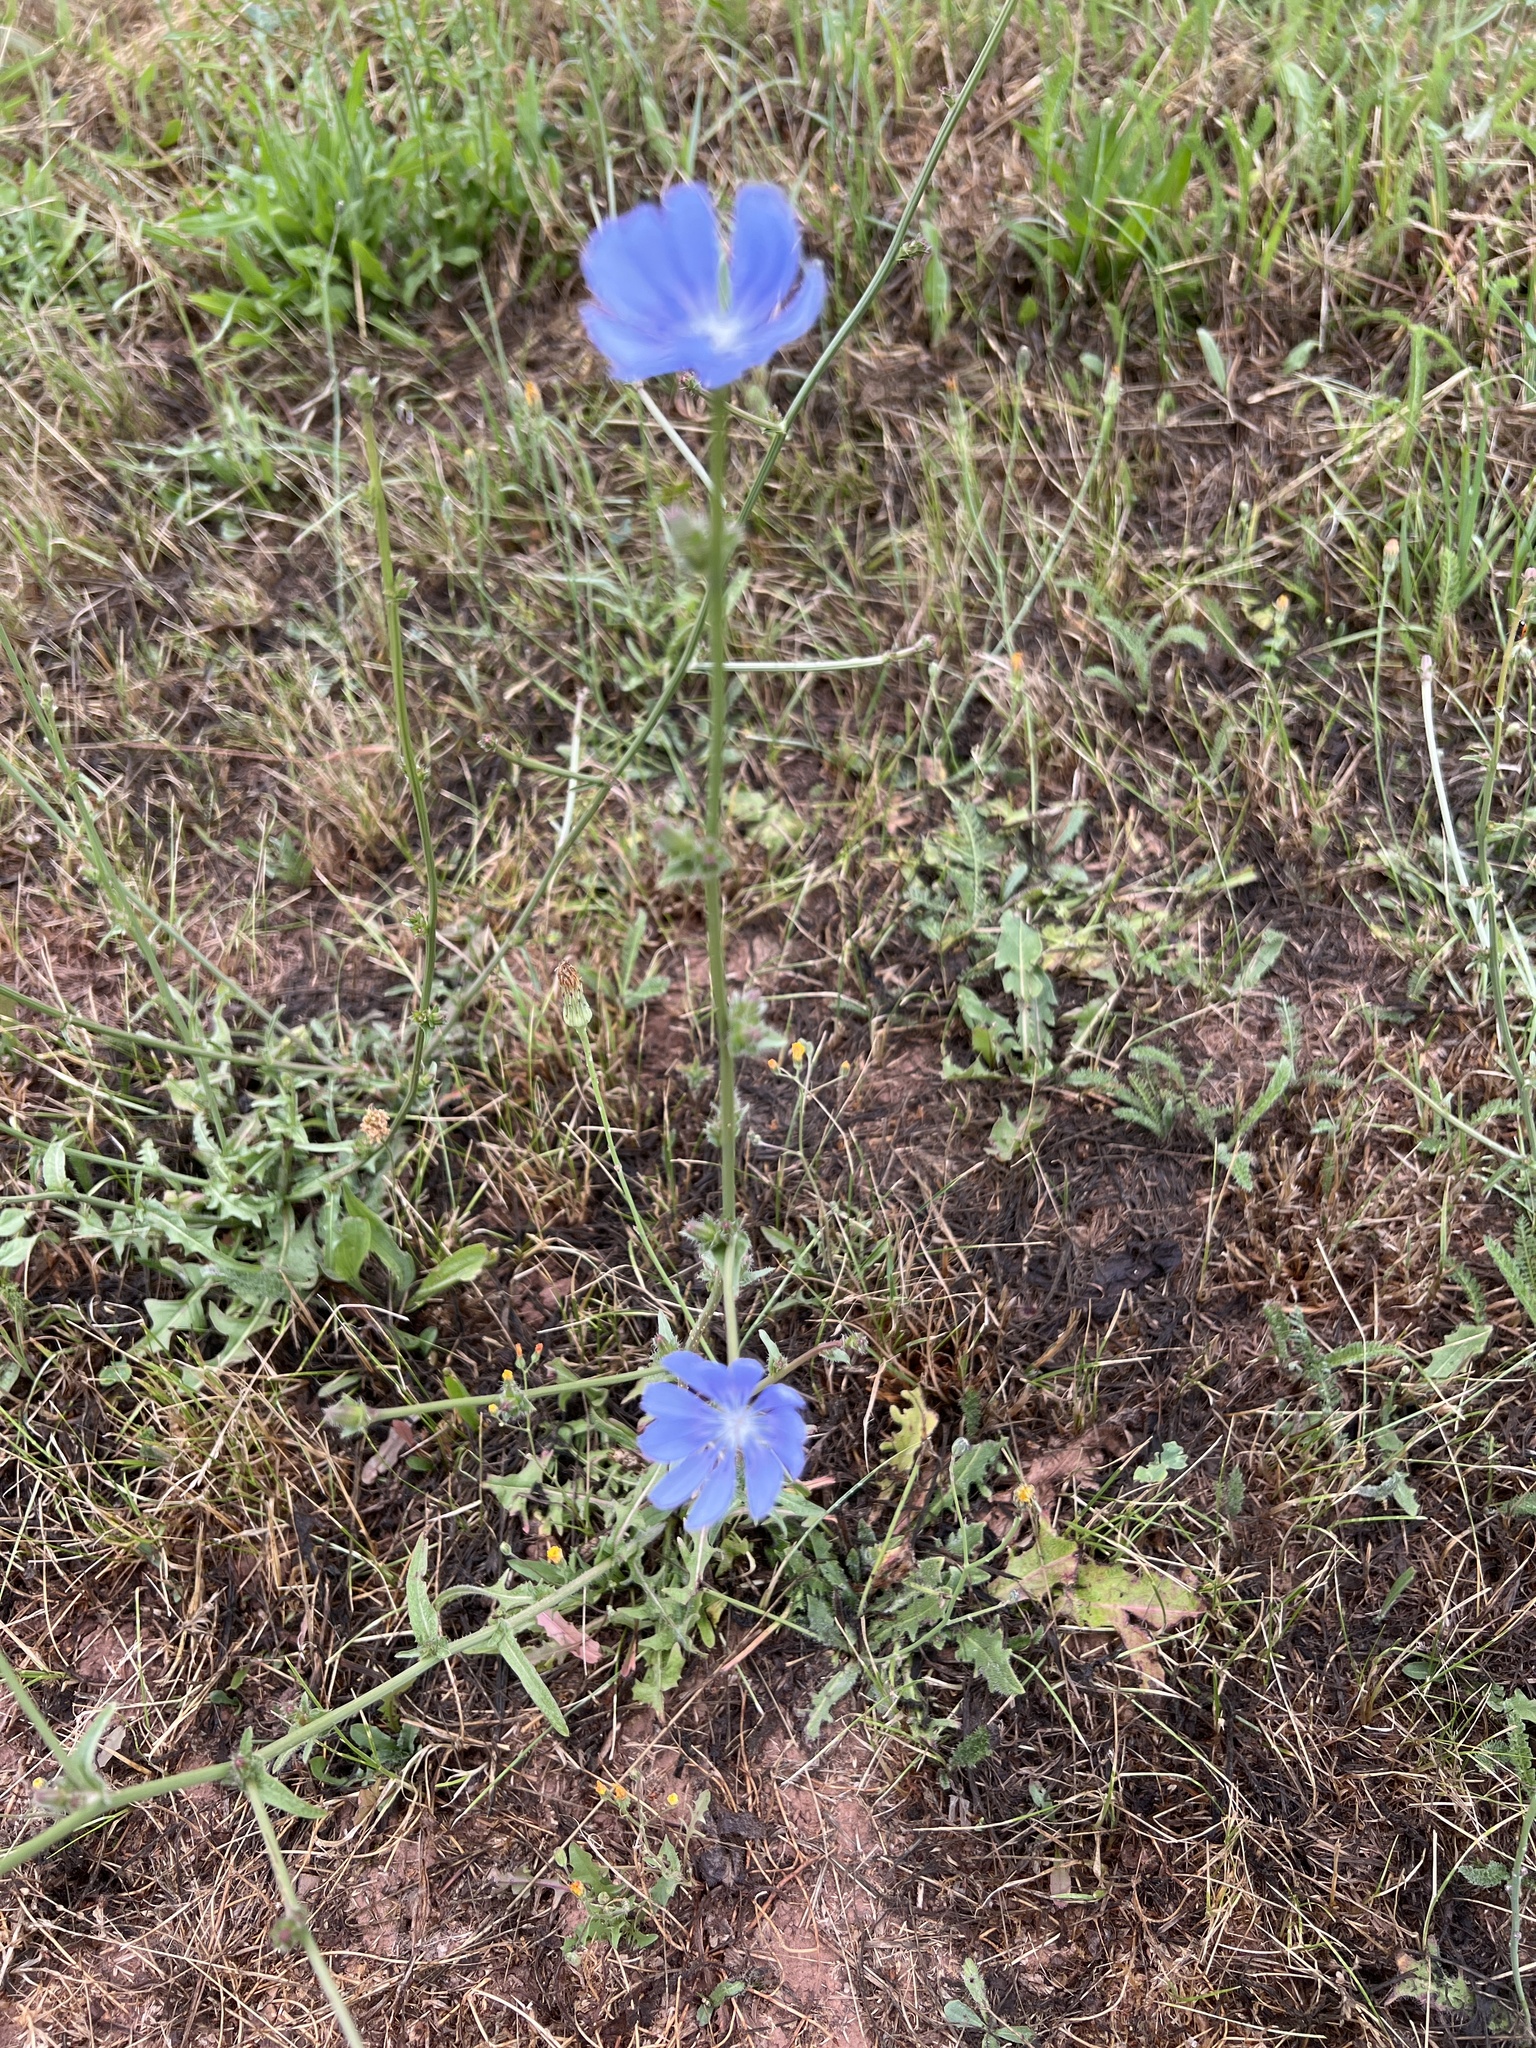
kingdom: Plantae
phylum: Tracheophyta
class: Magnoliopsida
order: Asterales
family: Asteraceae
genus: Cichorium
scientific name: Cichorium intybus
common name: Chicory
